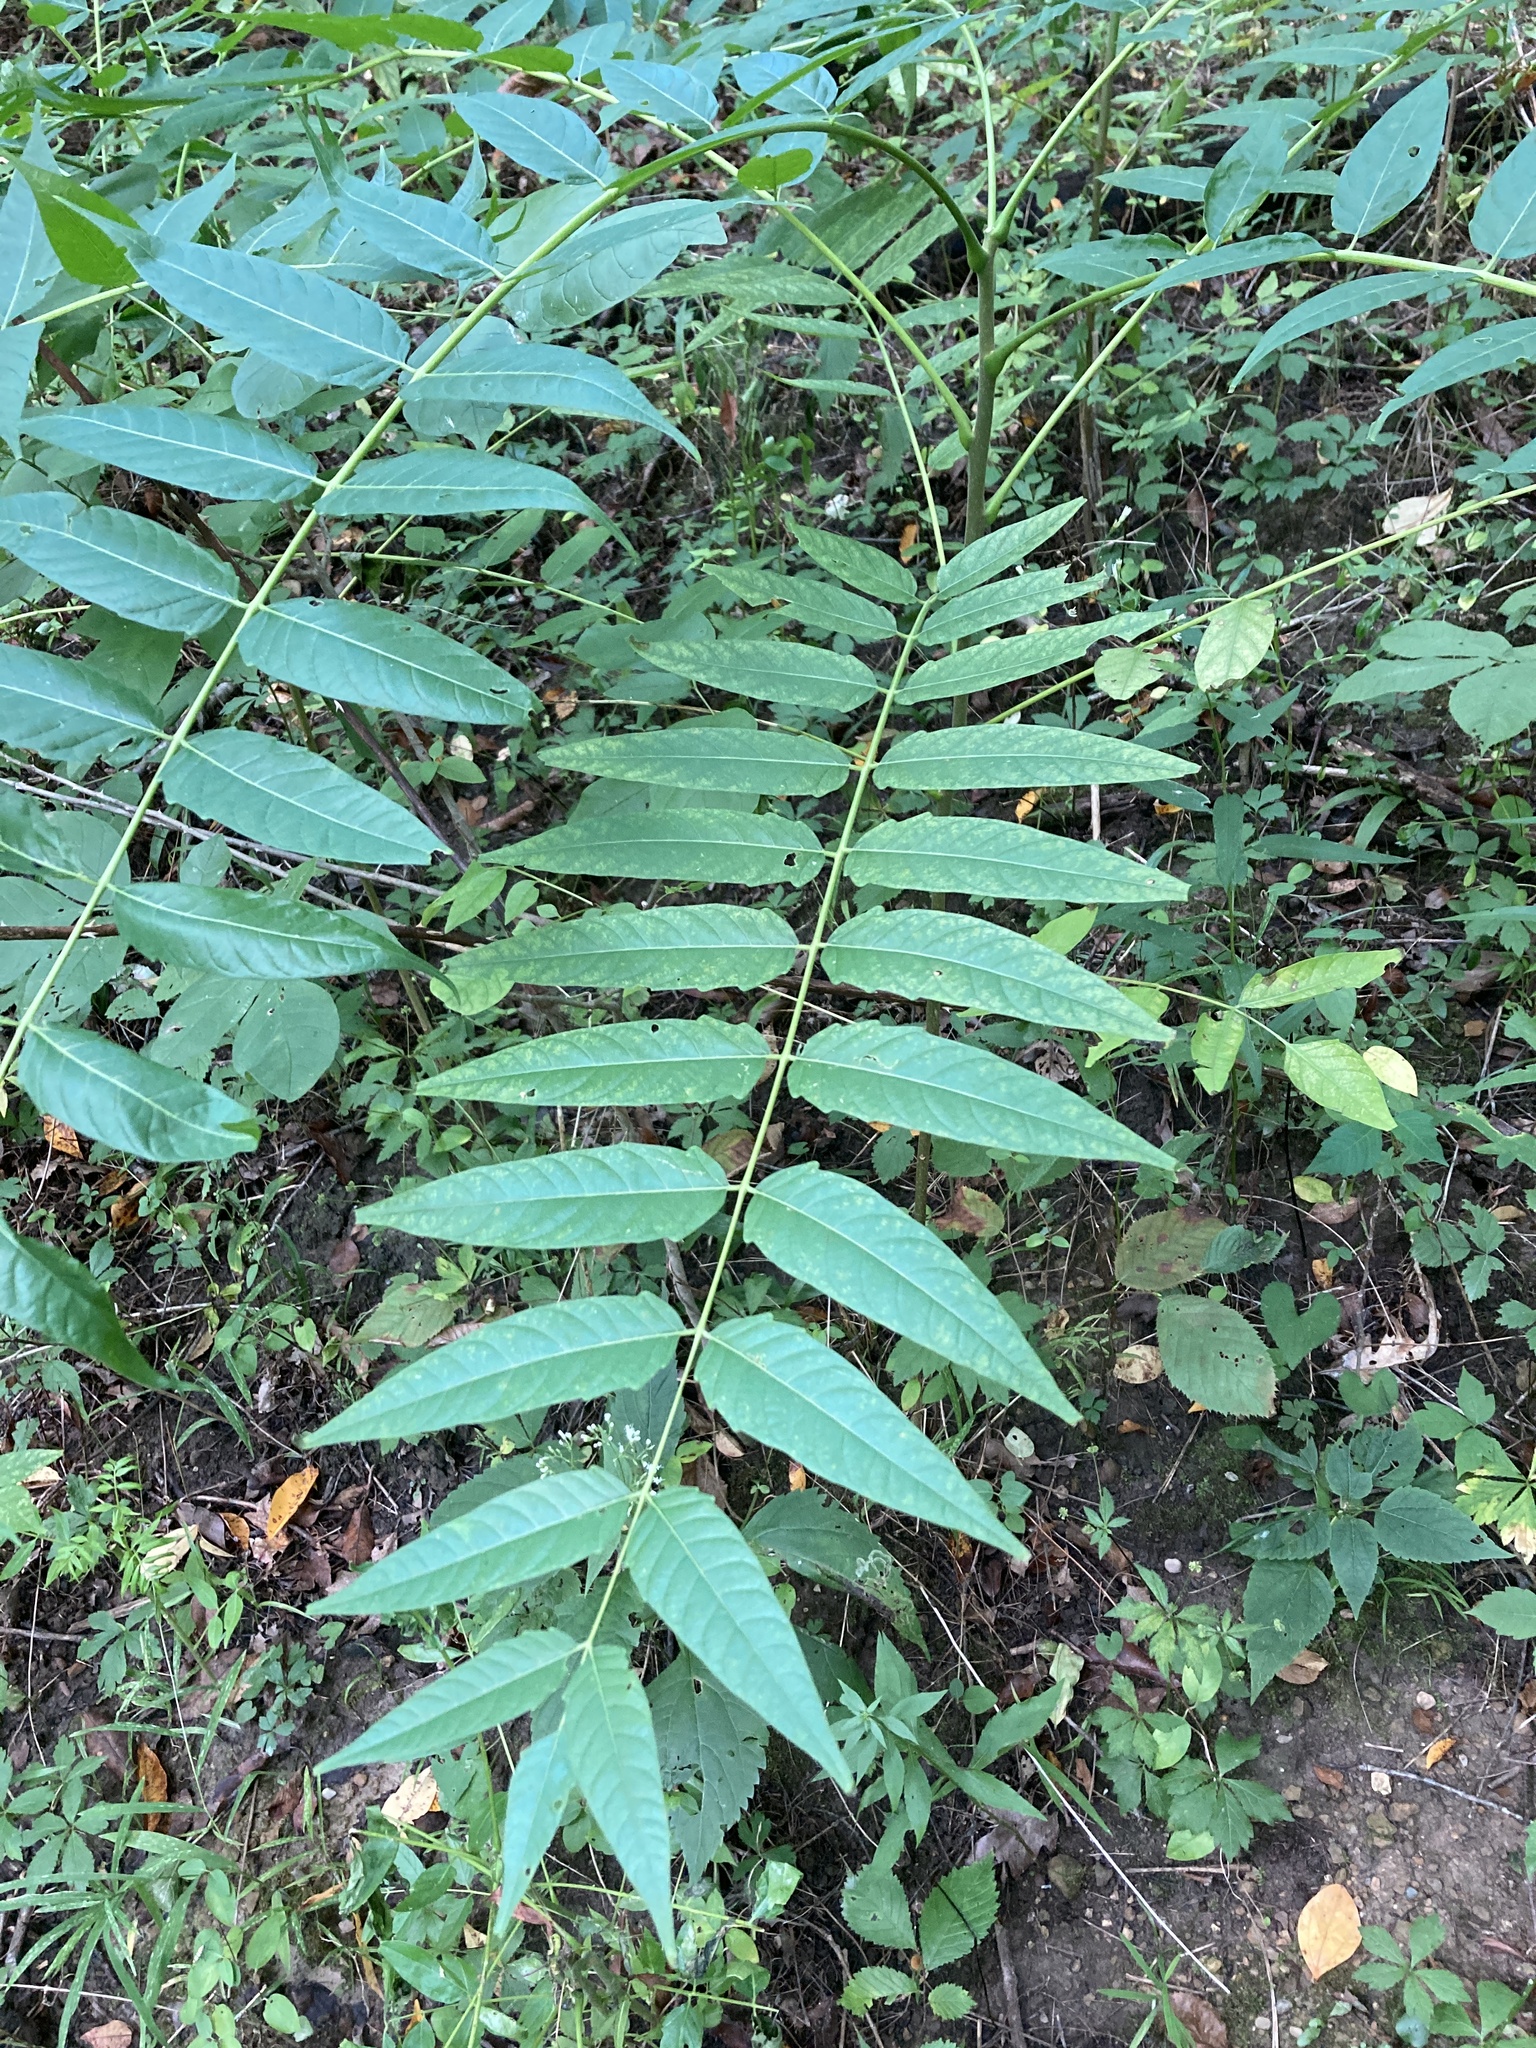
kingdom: Plantae
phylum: Tracheophyta
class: Magnoliopsida
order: Sapindales
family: Simaroubaceae
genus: Ailanthus
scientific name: Ailanthus altissima
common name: Tree-of-heaven
